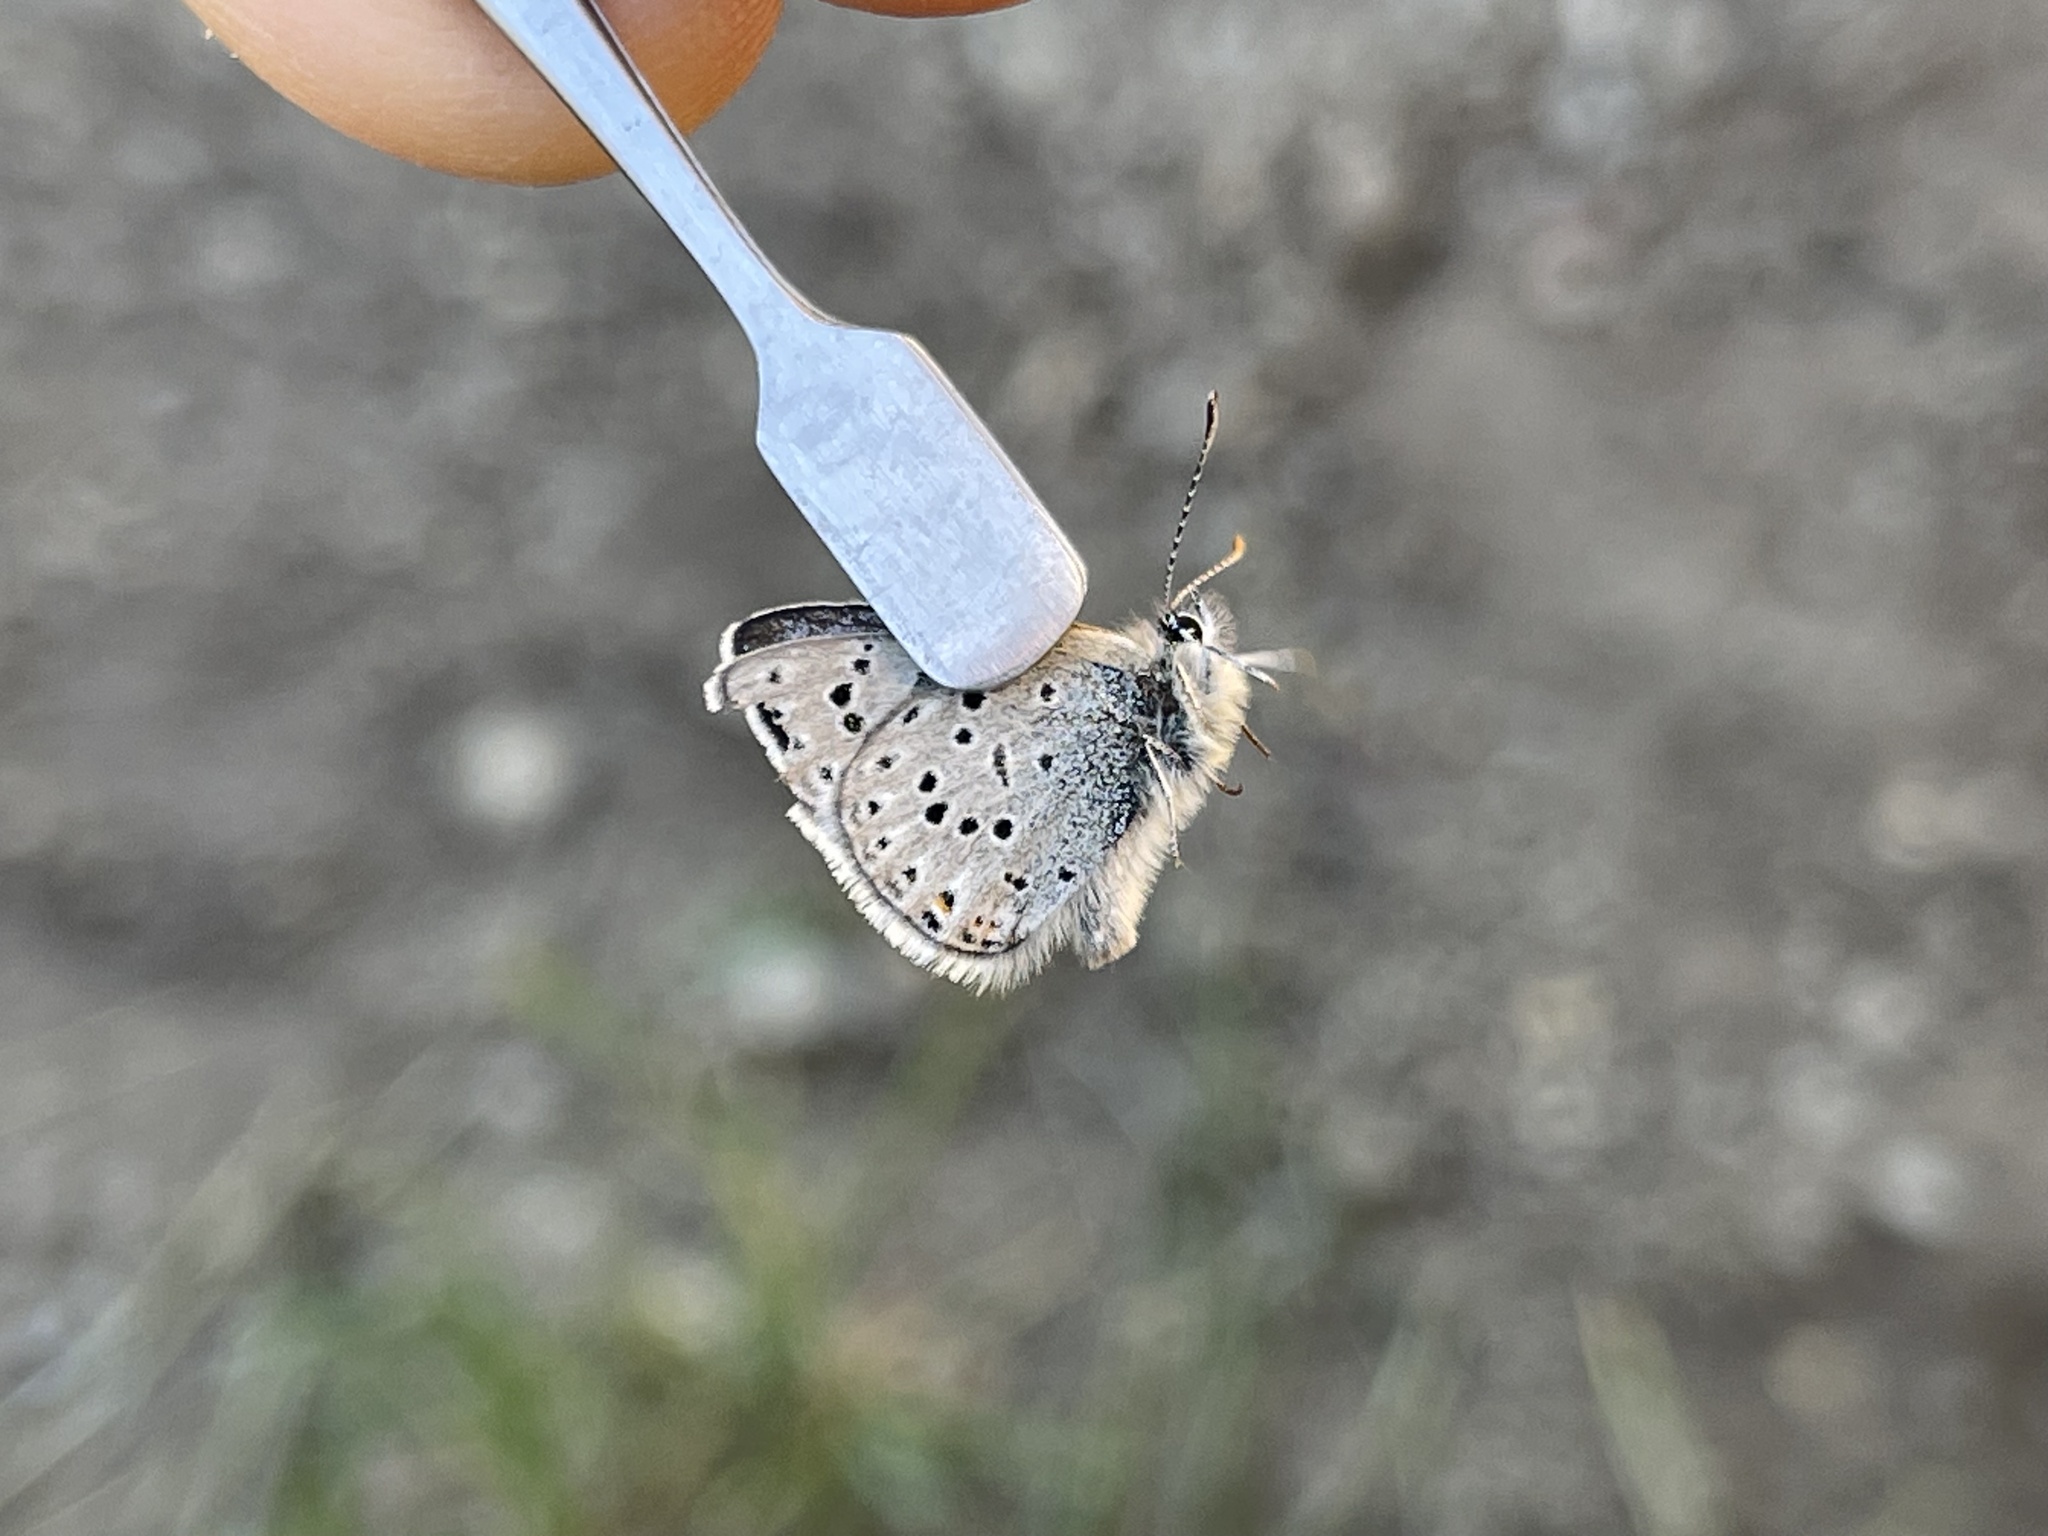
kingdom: Animalia
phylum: Arthropoda
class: Insecta
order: Lepidoptera
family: Lycaenidae
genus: Icaricia
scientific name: Icaricia saepiolus
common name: Greenish blue
